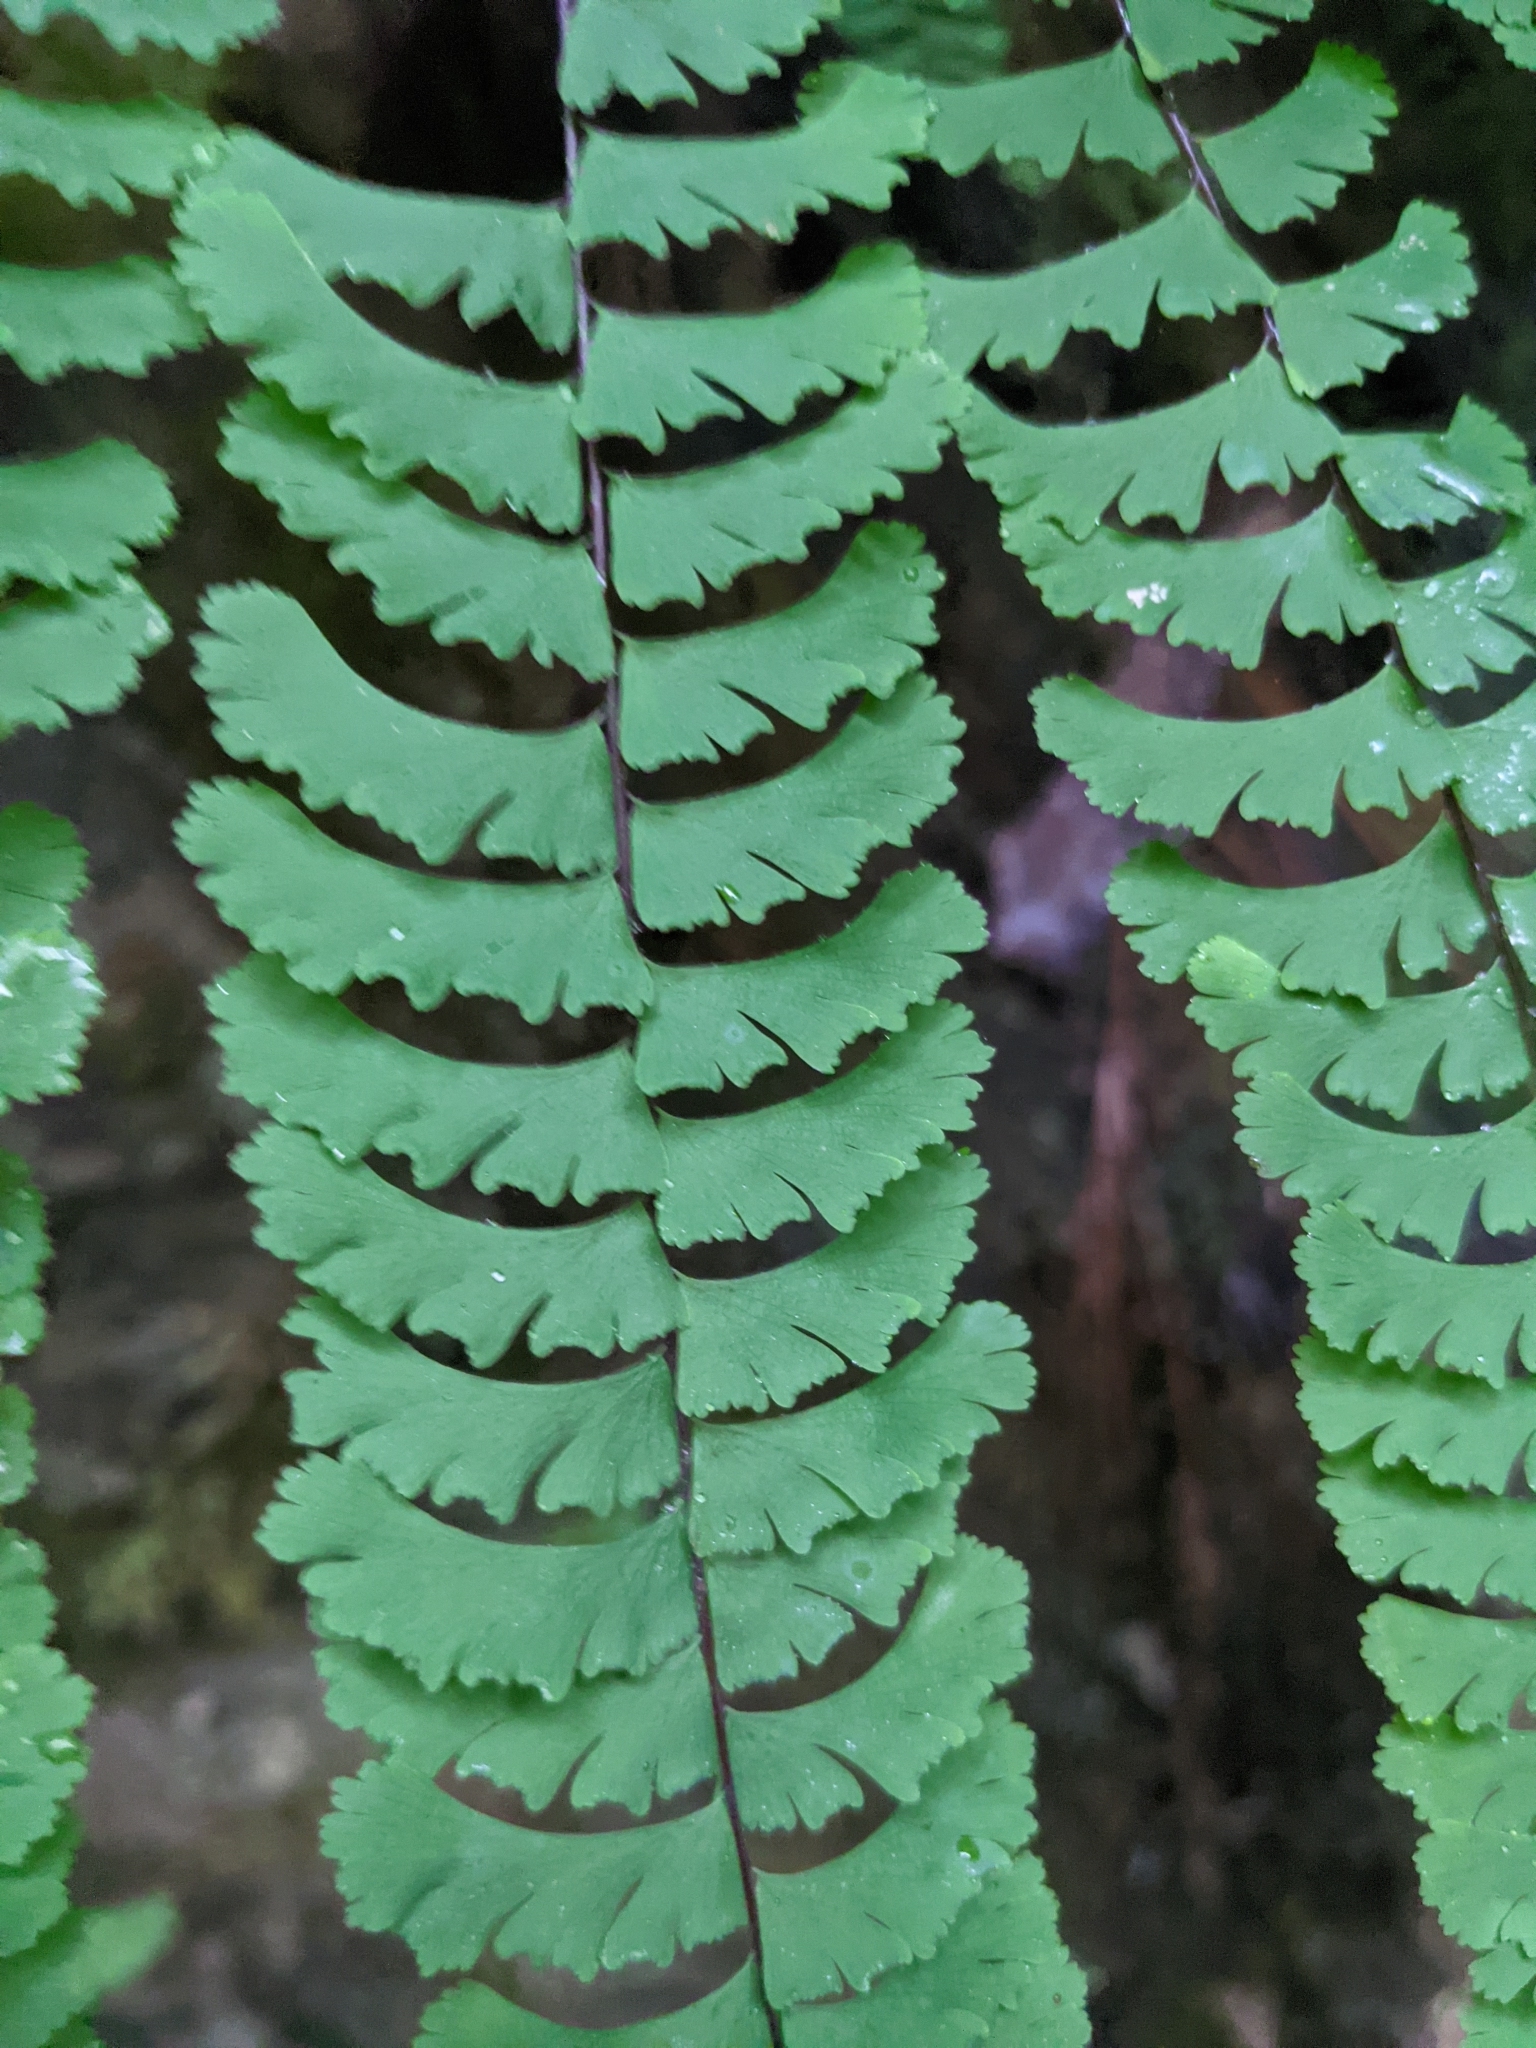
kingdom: Plantae
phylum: Tracheophyta
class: Polypodiopsida
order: Polypodiales
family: Pteridaceae
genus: Adiantum
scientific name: Adiantum aleuticum
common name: Aleutian maidenhair fern
